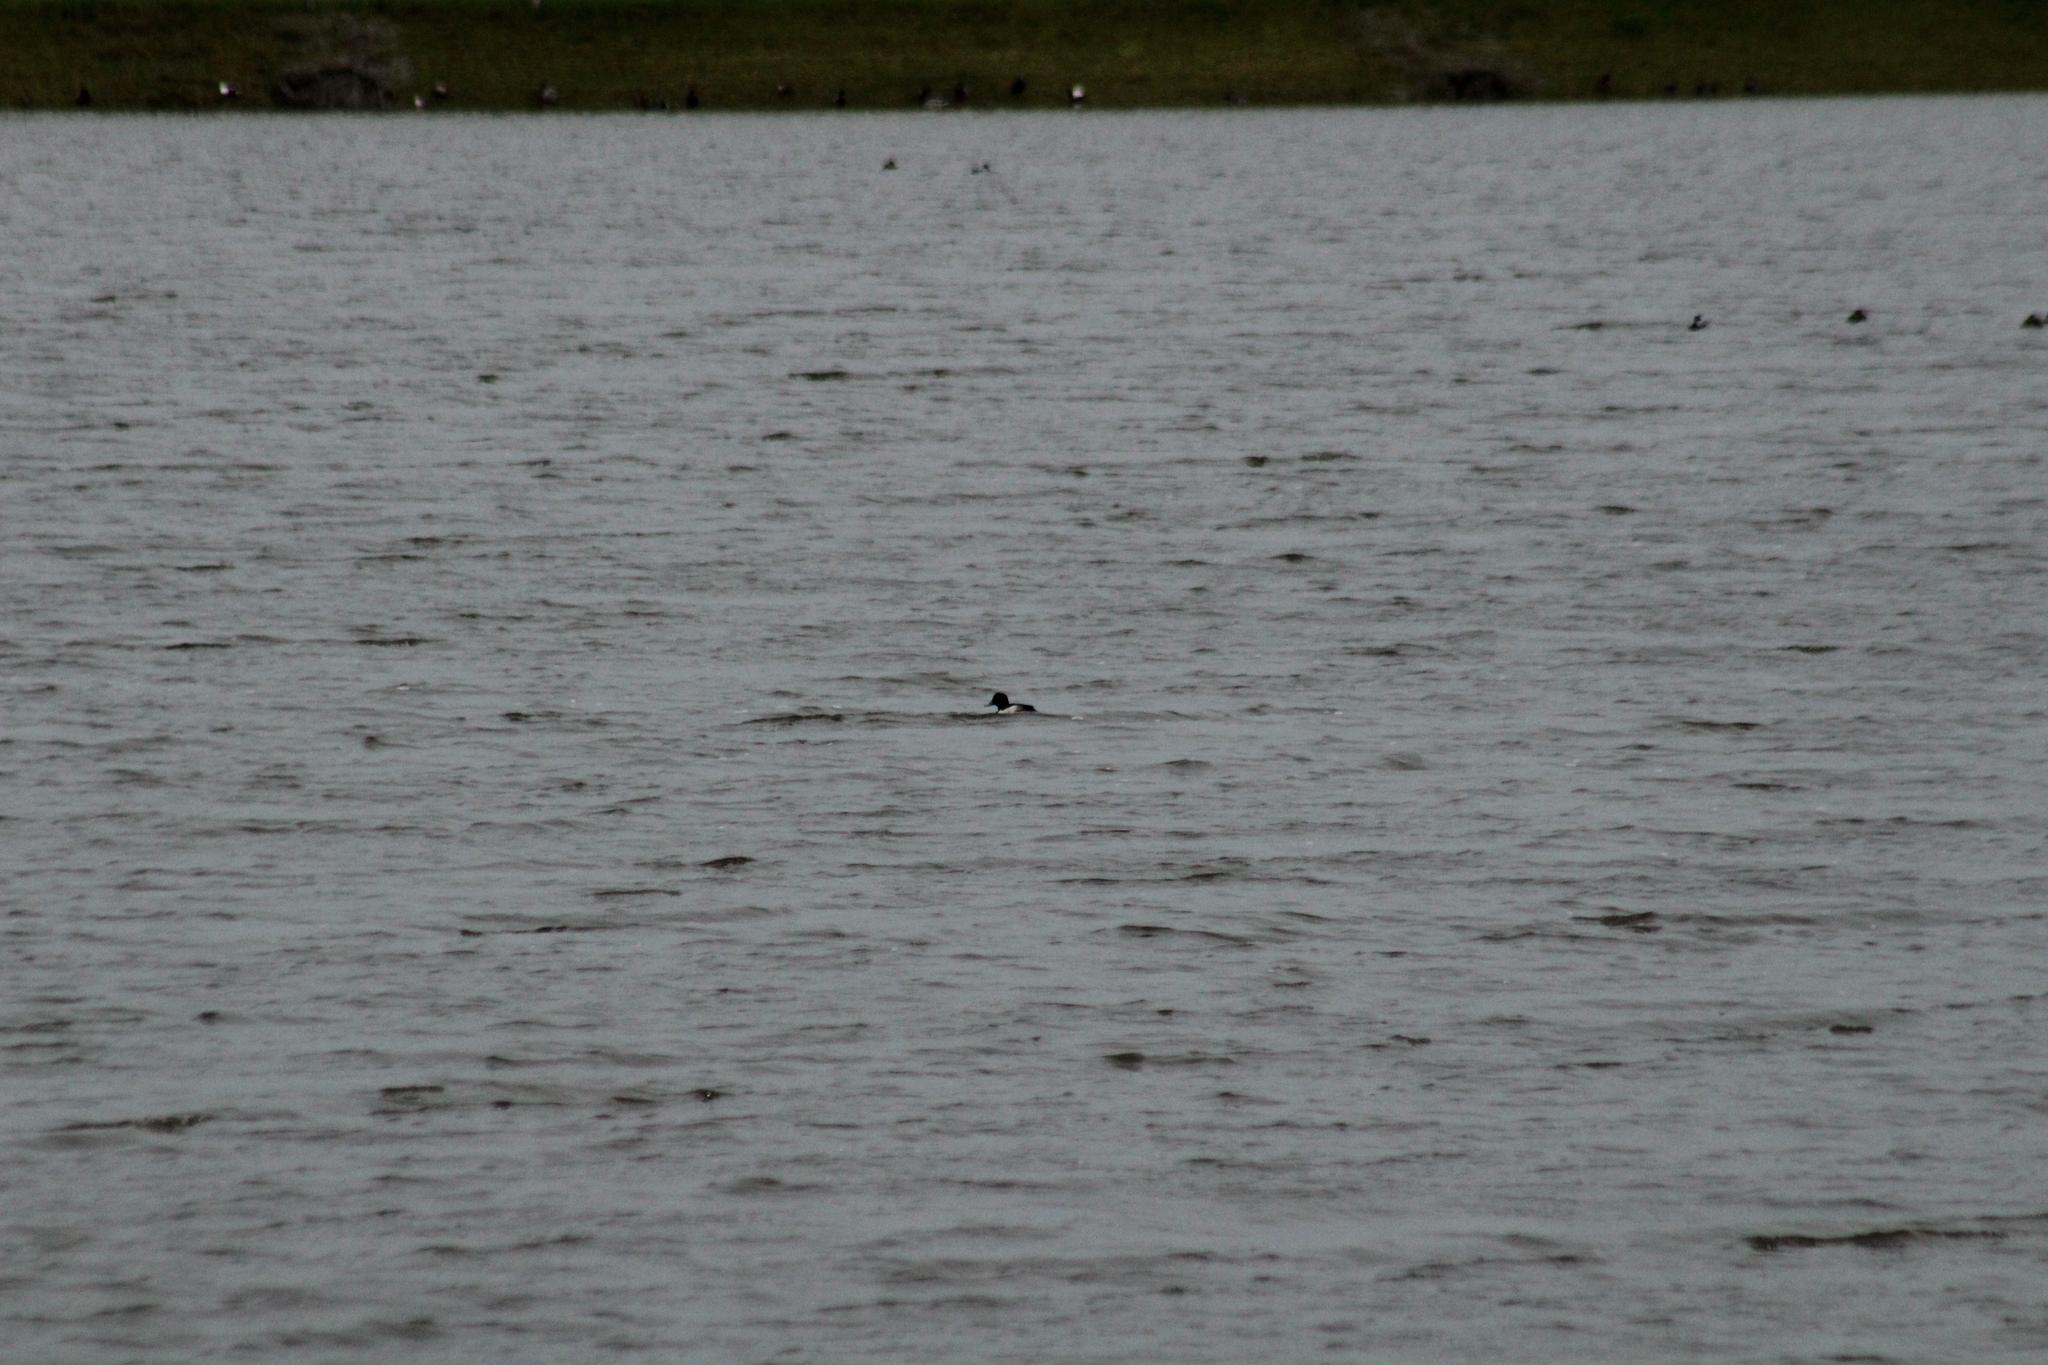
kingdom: Animalia
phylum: Chordata
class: Aves
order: Anseriformes
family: Anatidae
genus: Aythya
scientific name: Aythya fuligula
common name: Tufted duck
